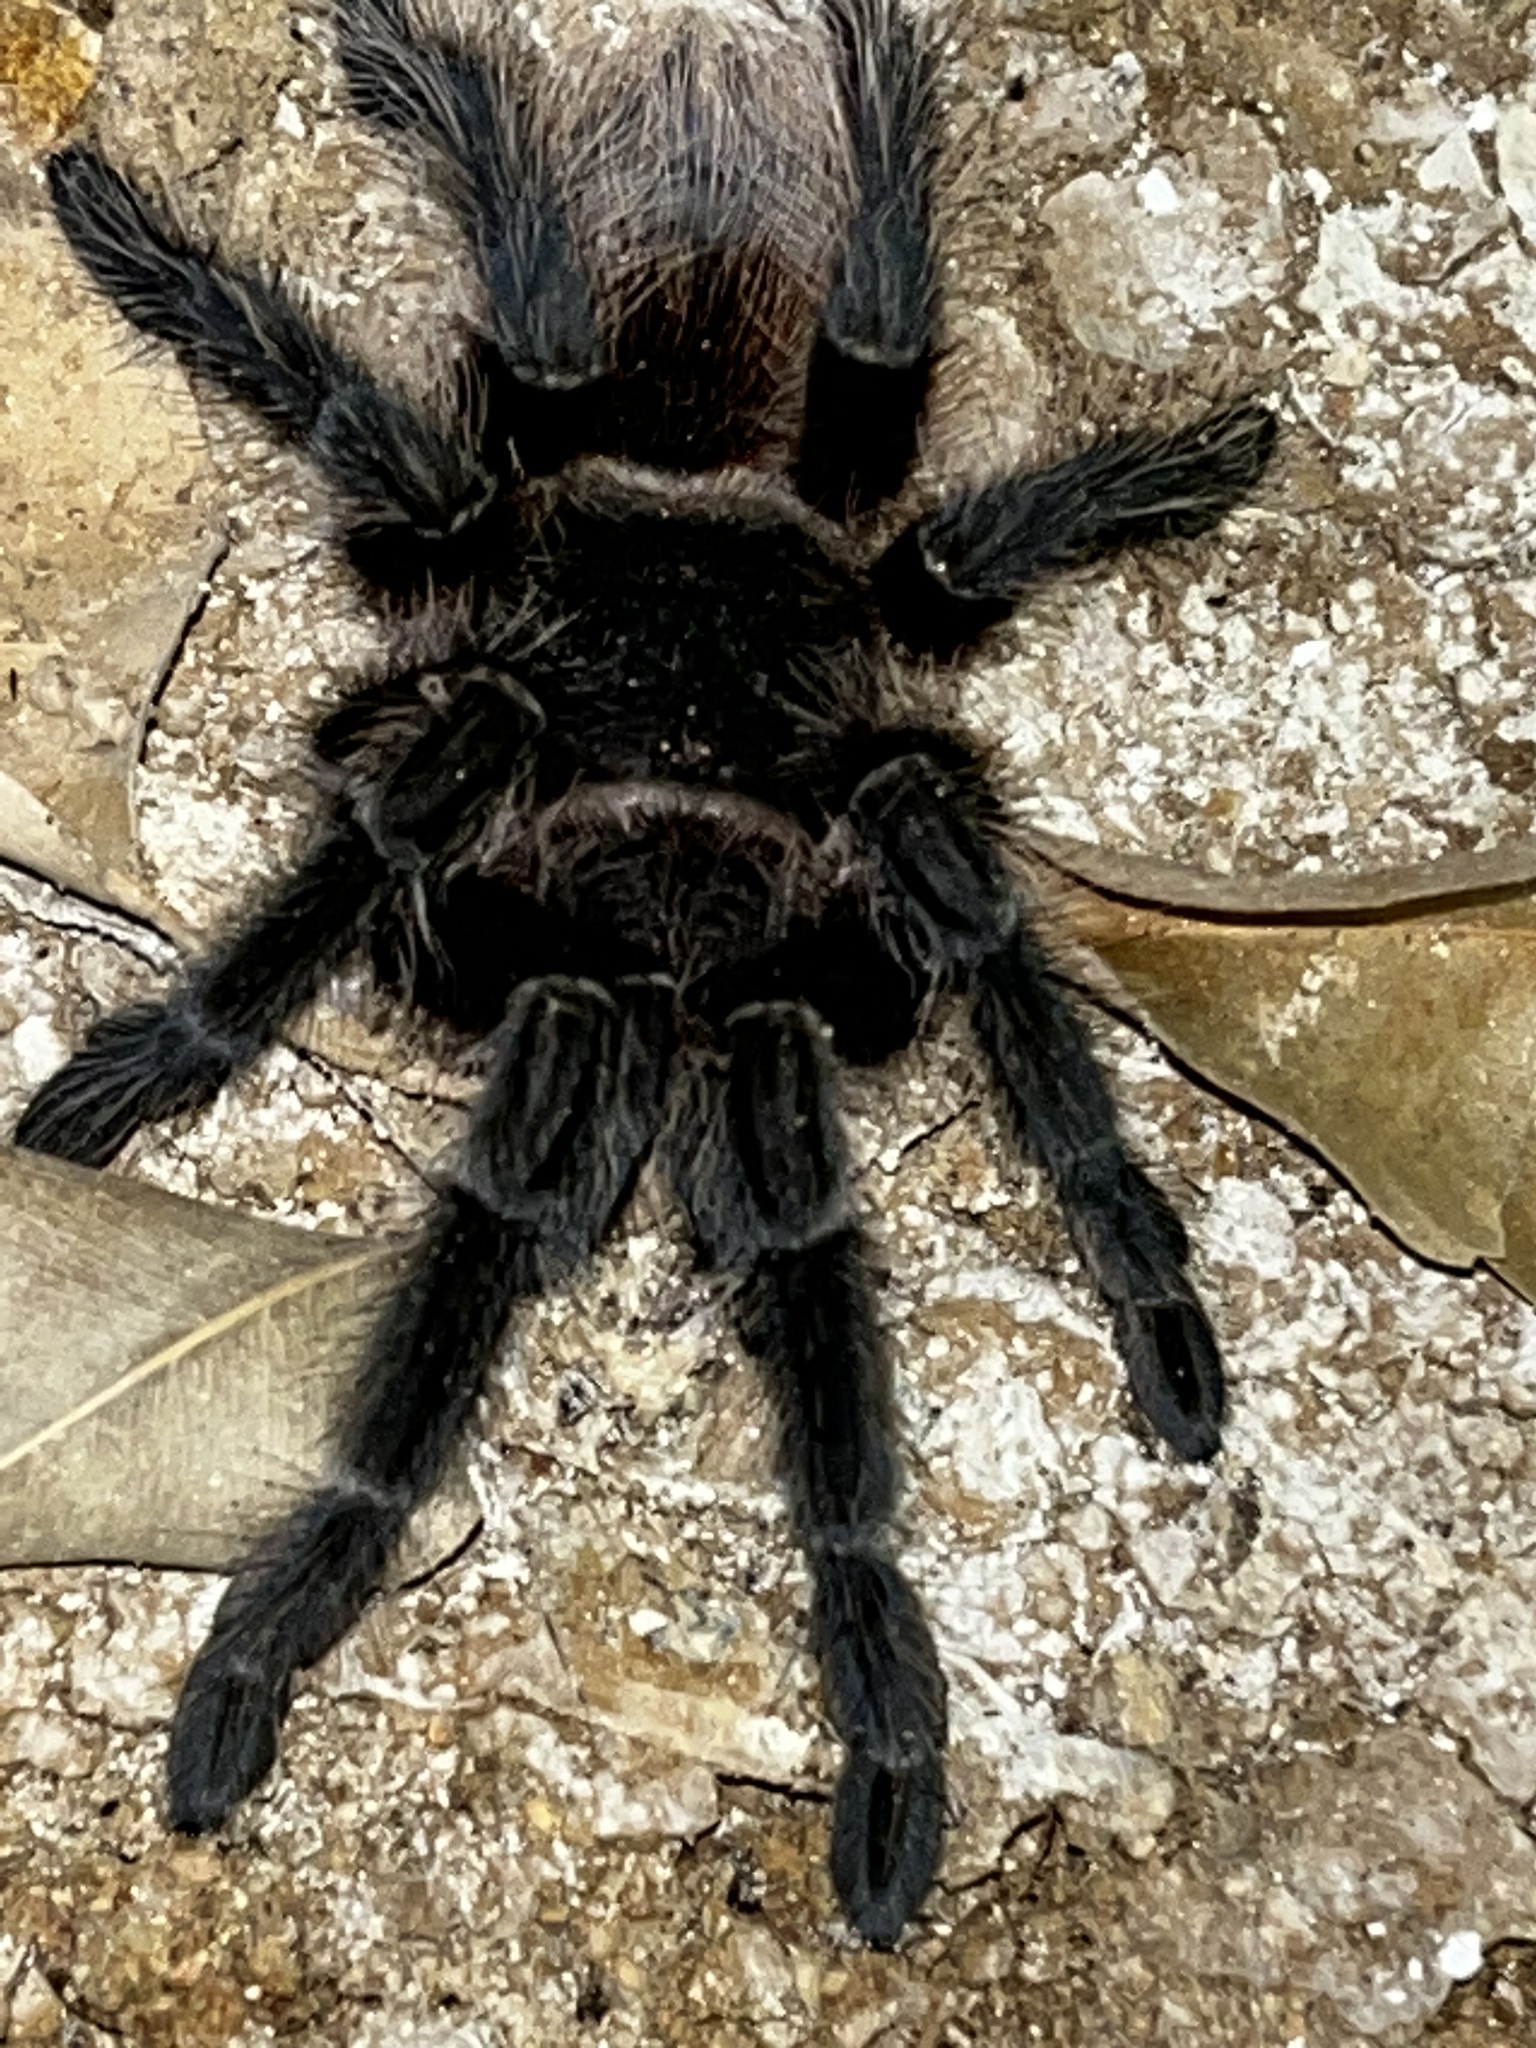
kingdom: Animalia
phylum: Arthropoda
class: Arachnida
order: Araneae
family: Theraphosidae
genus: Lasiodora
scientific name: Lasiodora benedeni
